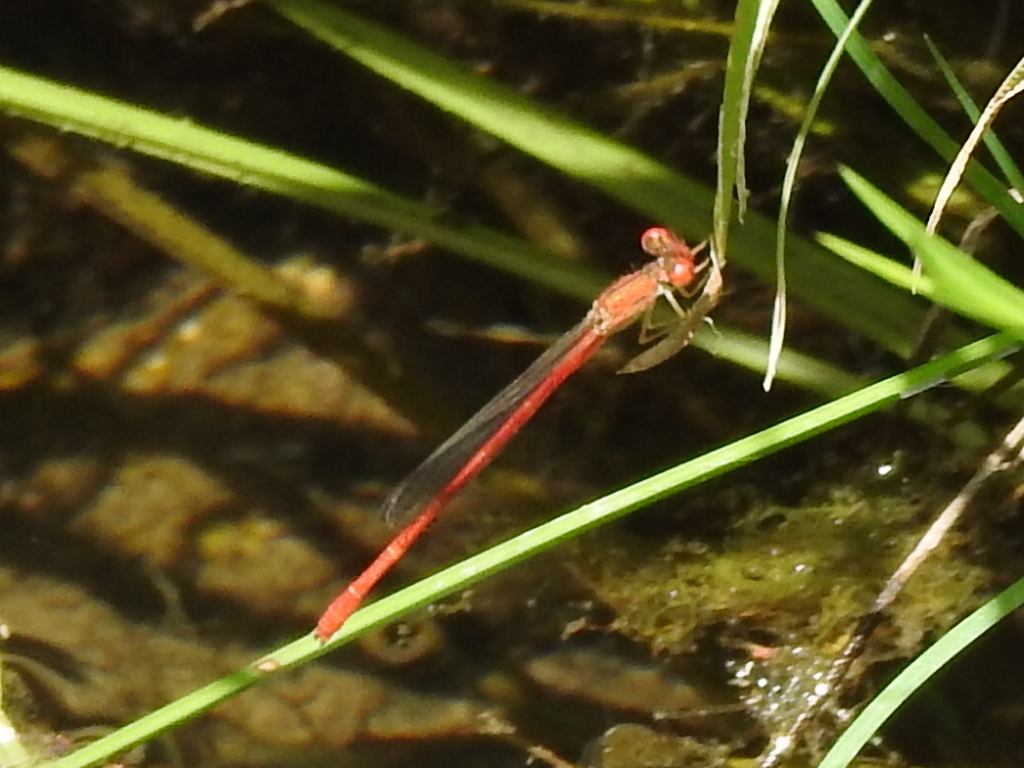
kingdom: Animalia
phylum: Arthropoda
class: Insecta
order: Odonata
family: Coenagrionidae
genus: Telebasis
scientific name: Telebasis salva
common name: Desert firetail
